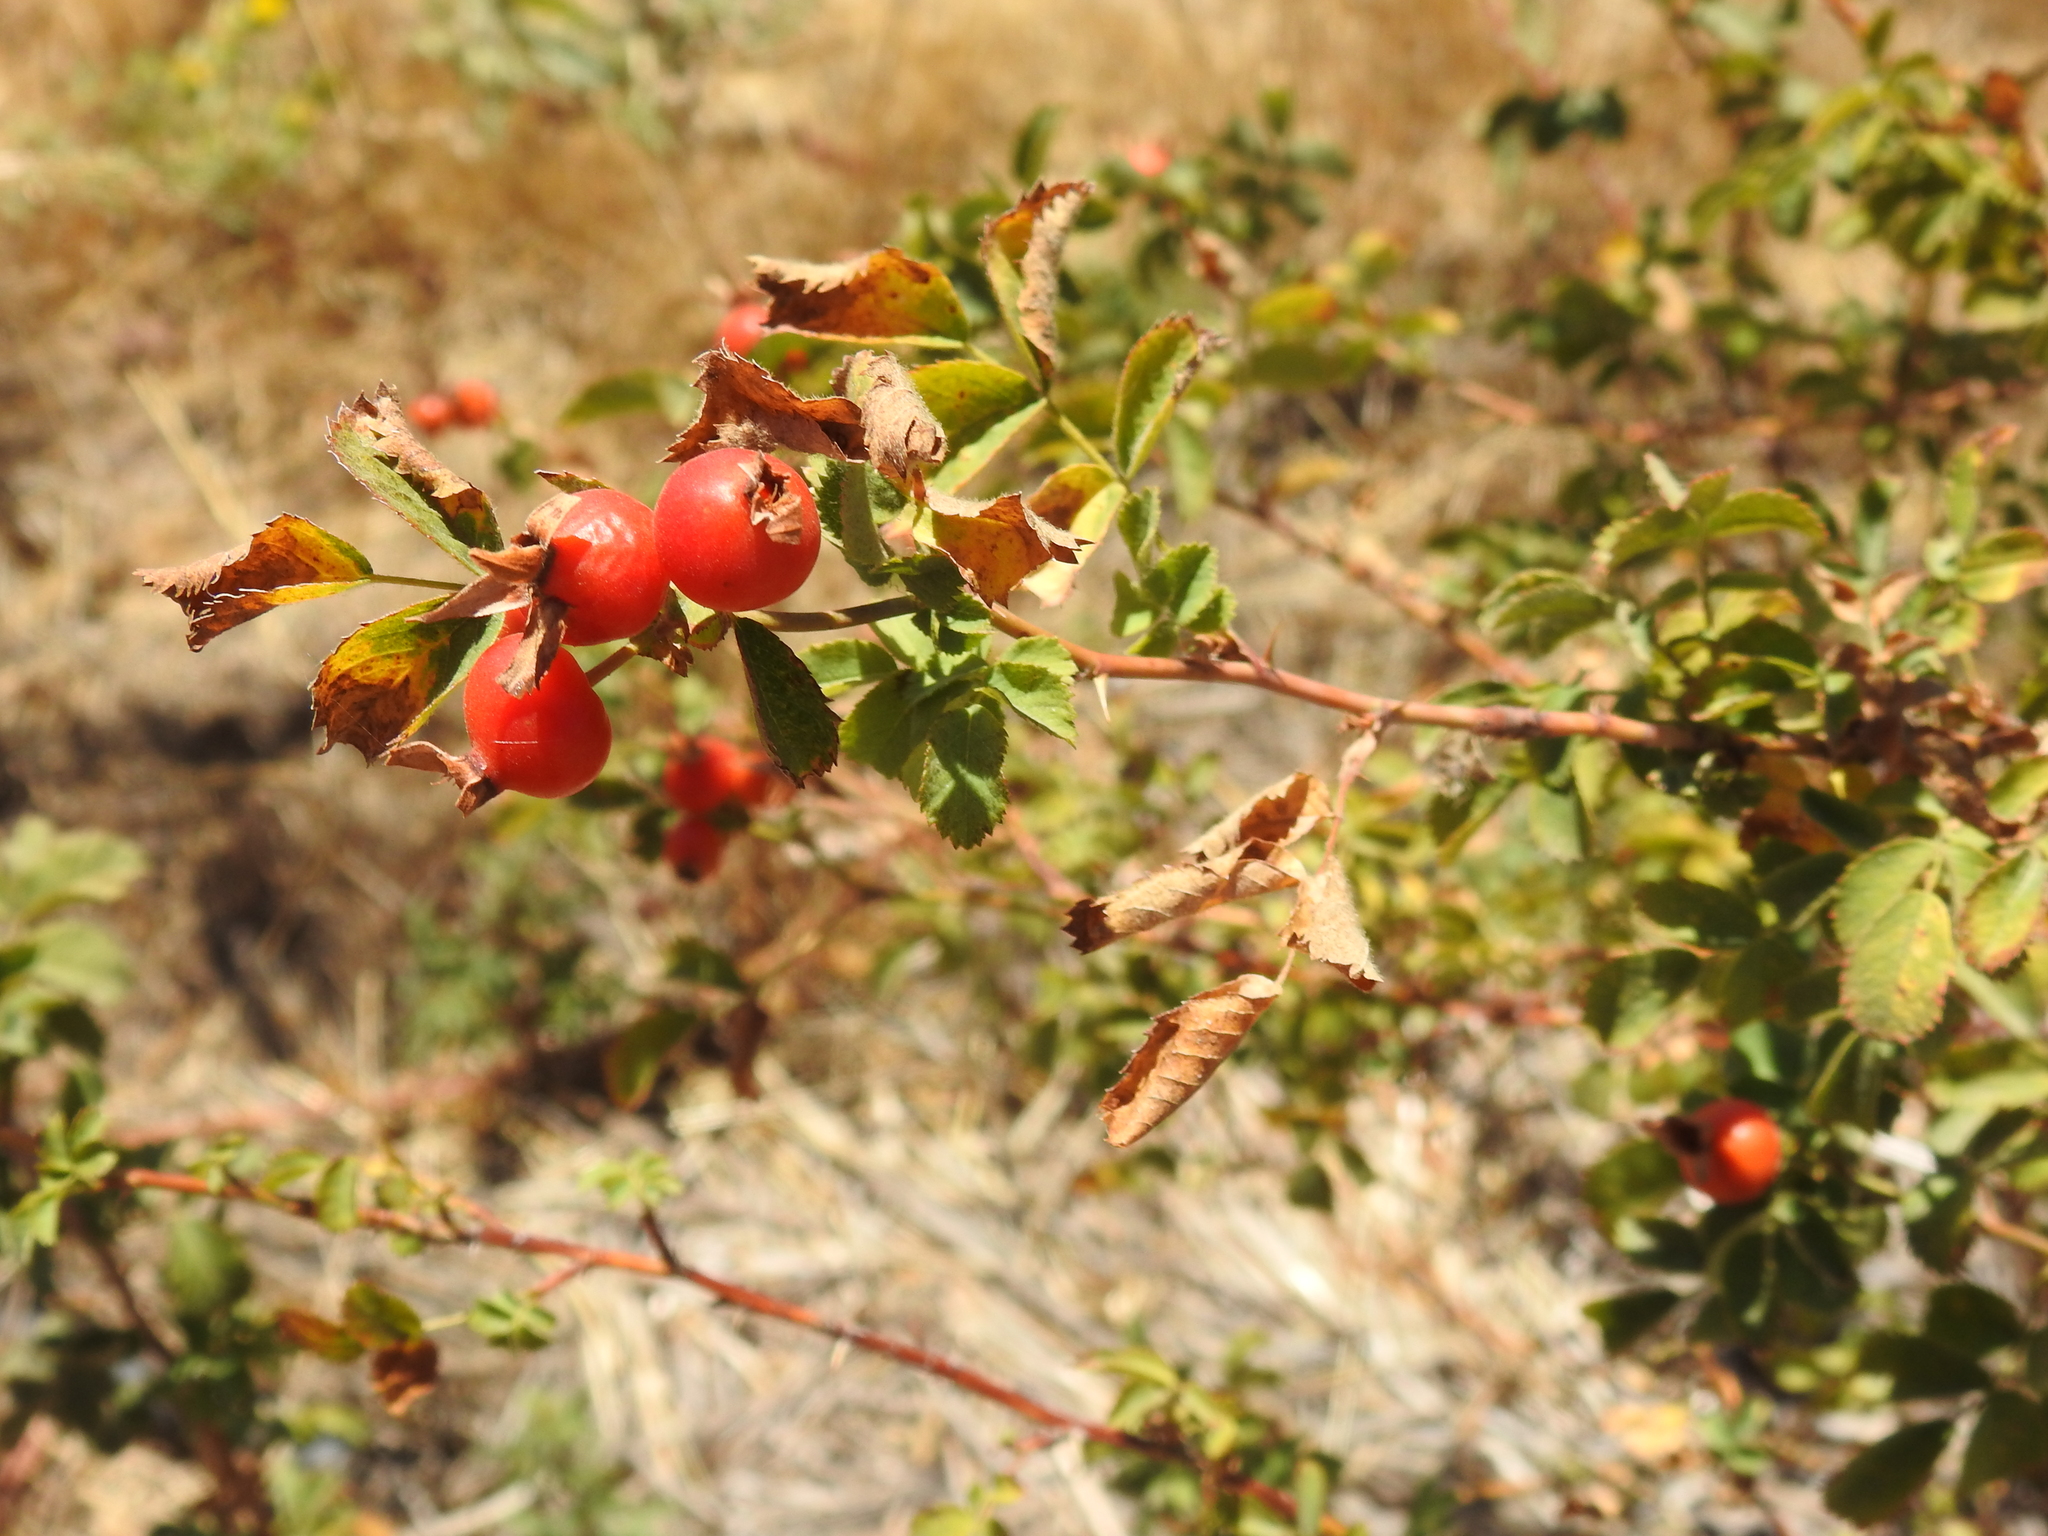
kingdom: Plantae
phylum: Tracheophyta
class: Magnoliopsida
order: Rosales
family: Rosaceae
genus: Rosa
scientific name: Rosa californica
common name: California rose
